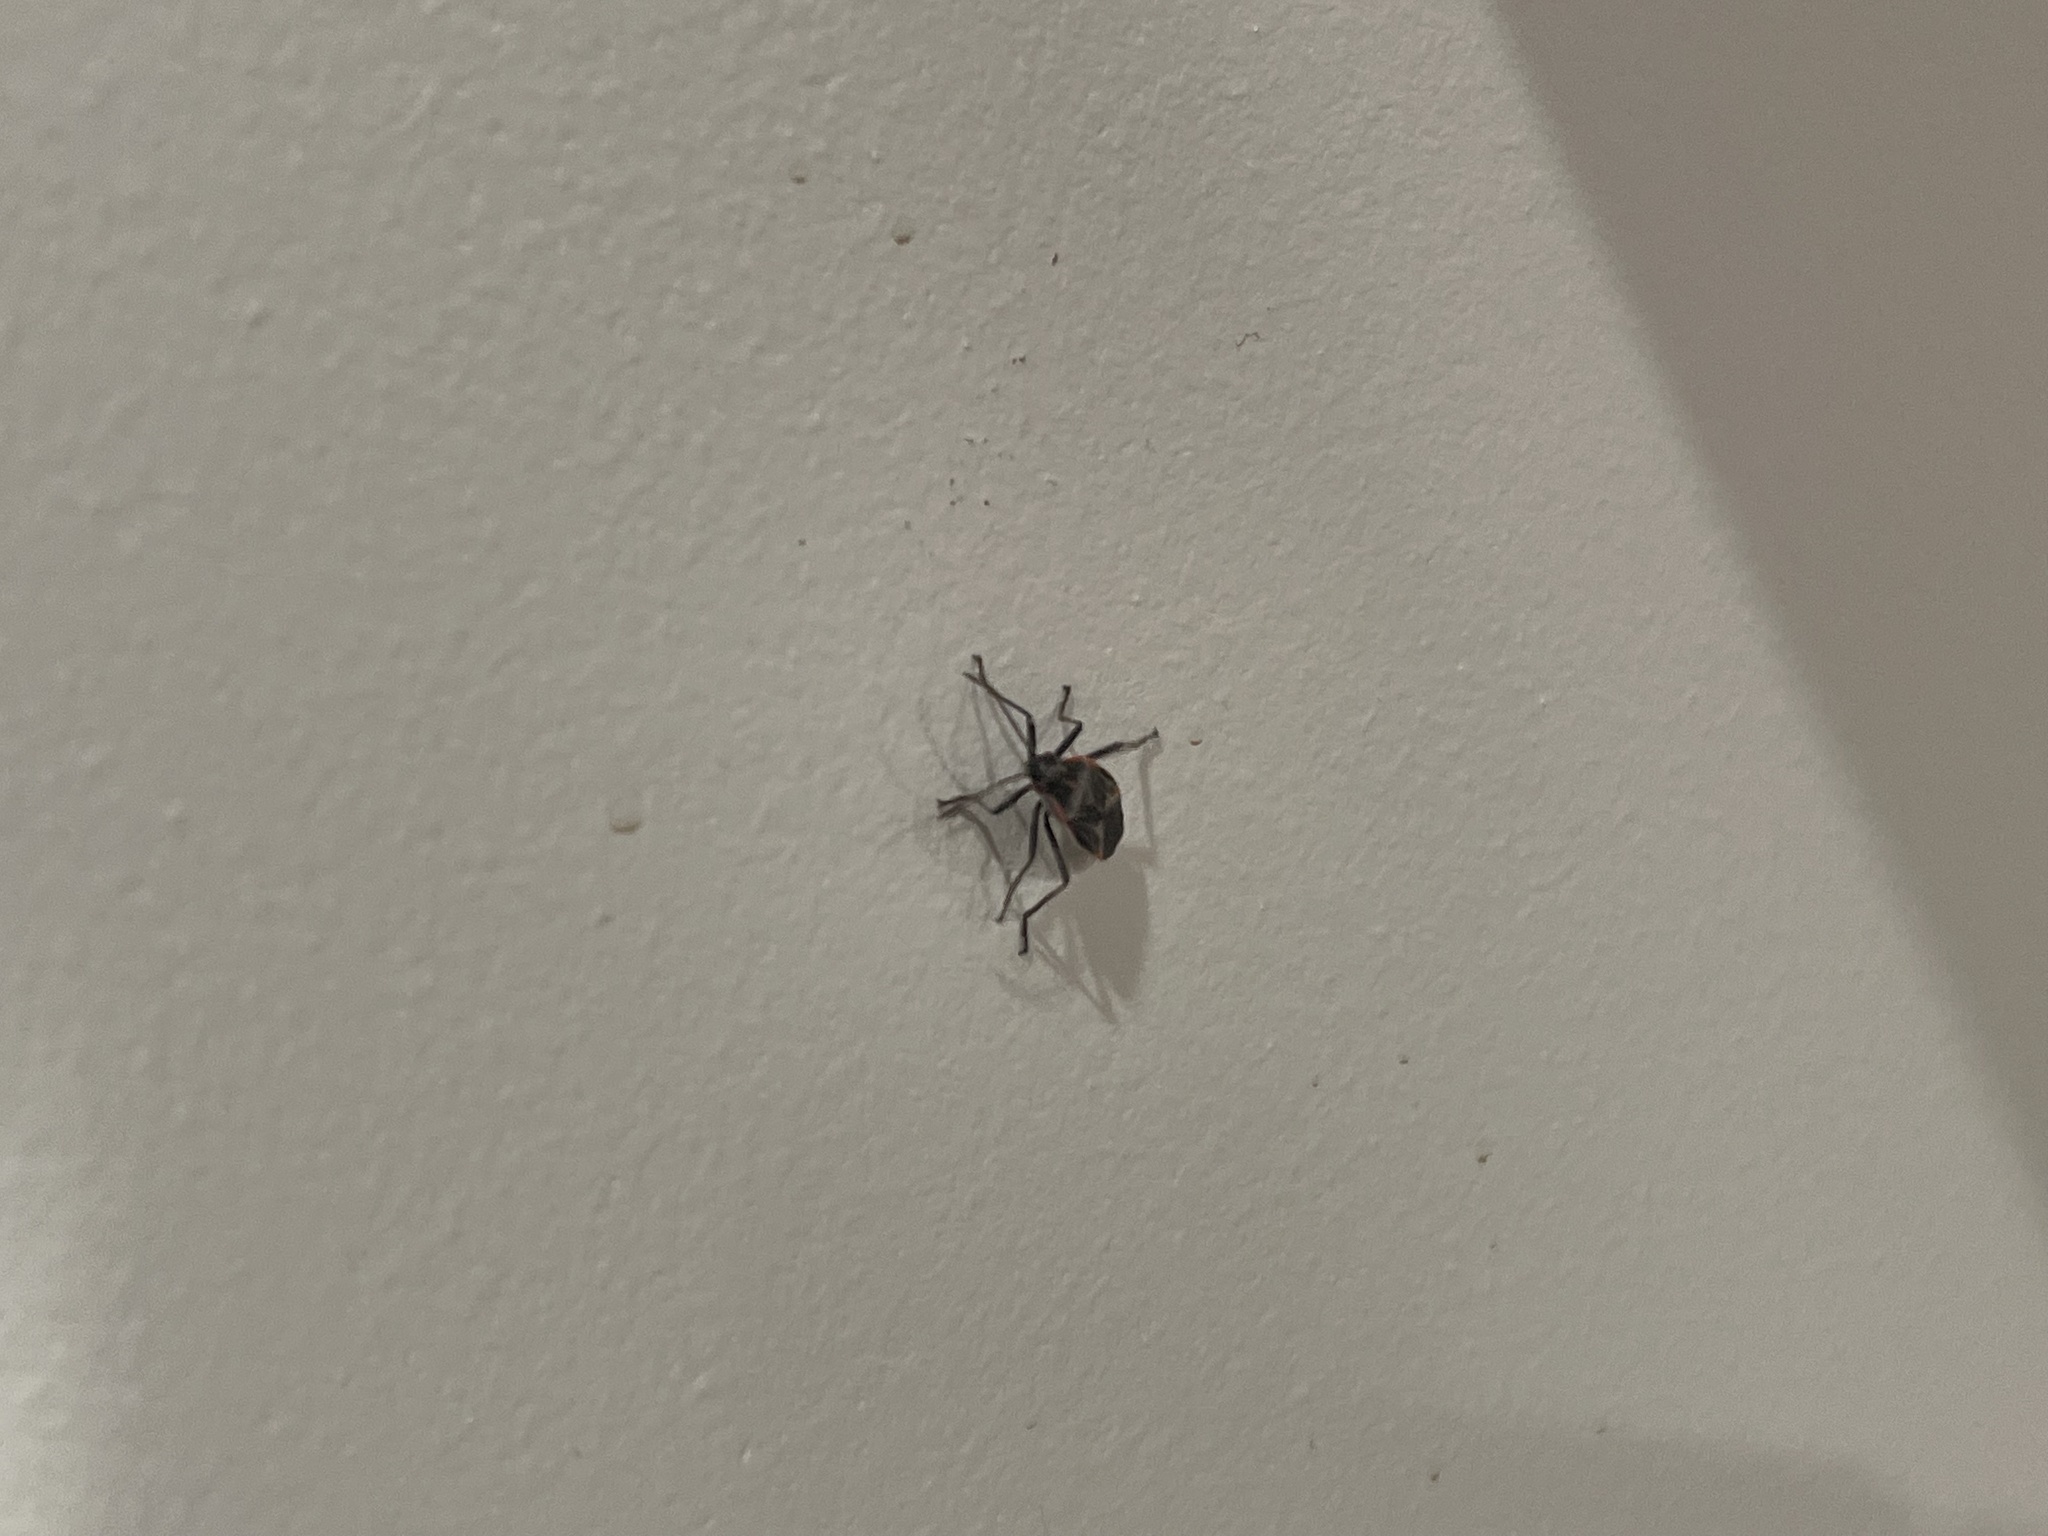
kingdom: Animalia
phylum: Arthropoda
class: Insecta
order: Hemiptera
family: Rhopalidae
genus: Boisea
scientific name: Boisea trivittata
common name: Boxelder bug
